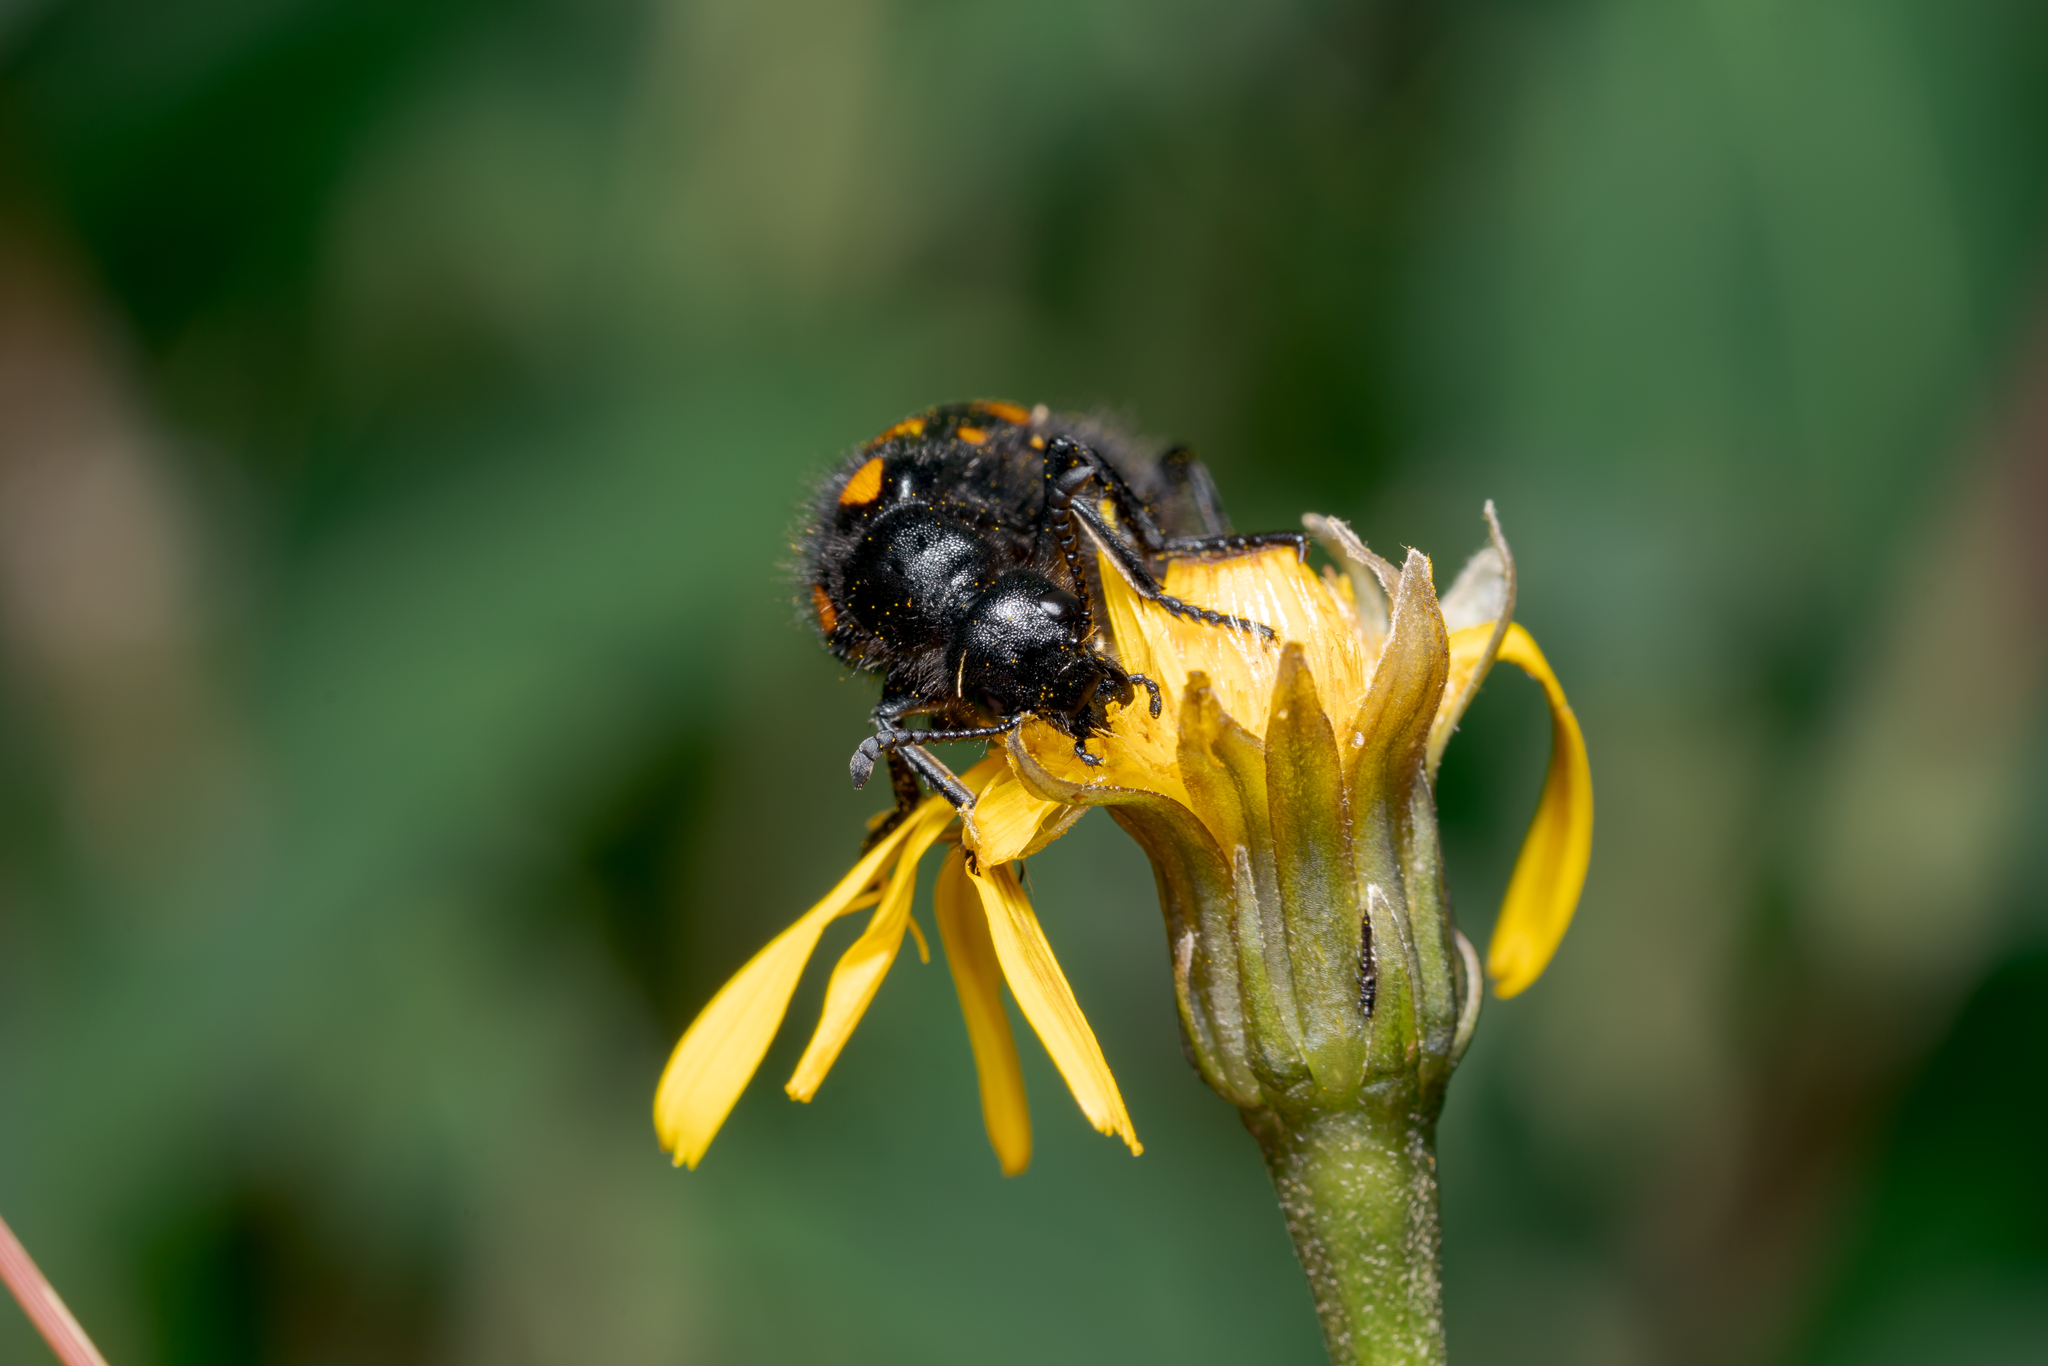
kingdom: Animalia
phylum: Arthropoda
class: Insecta
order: Coleoptera
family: Meloidae
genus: Hycleus
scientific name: Hycleus polymorphus
